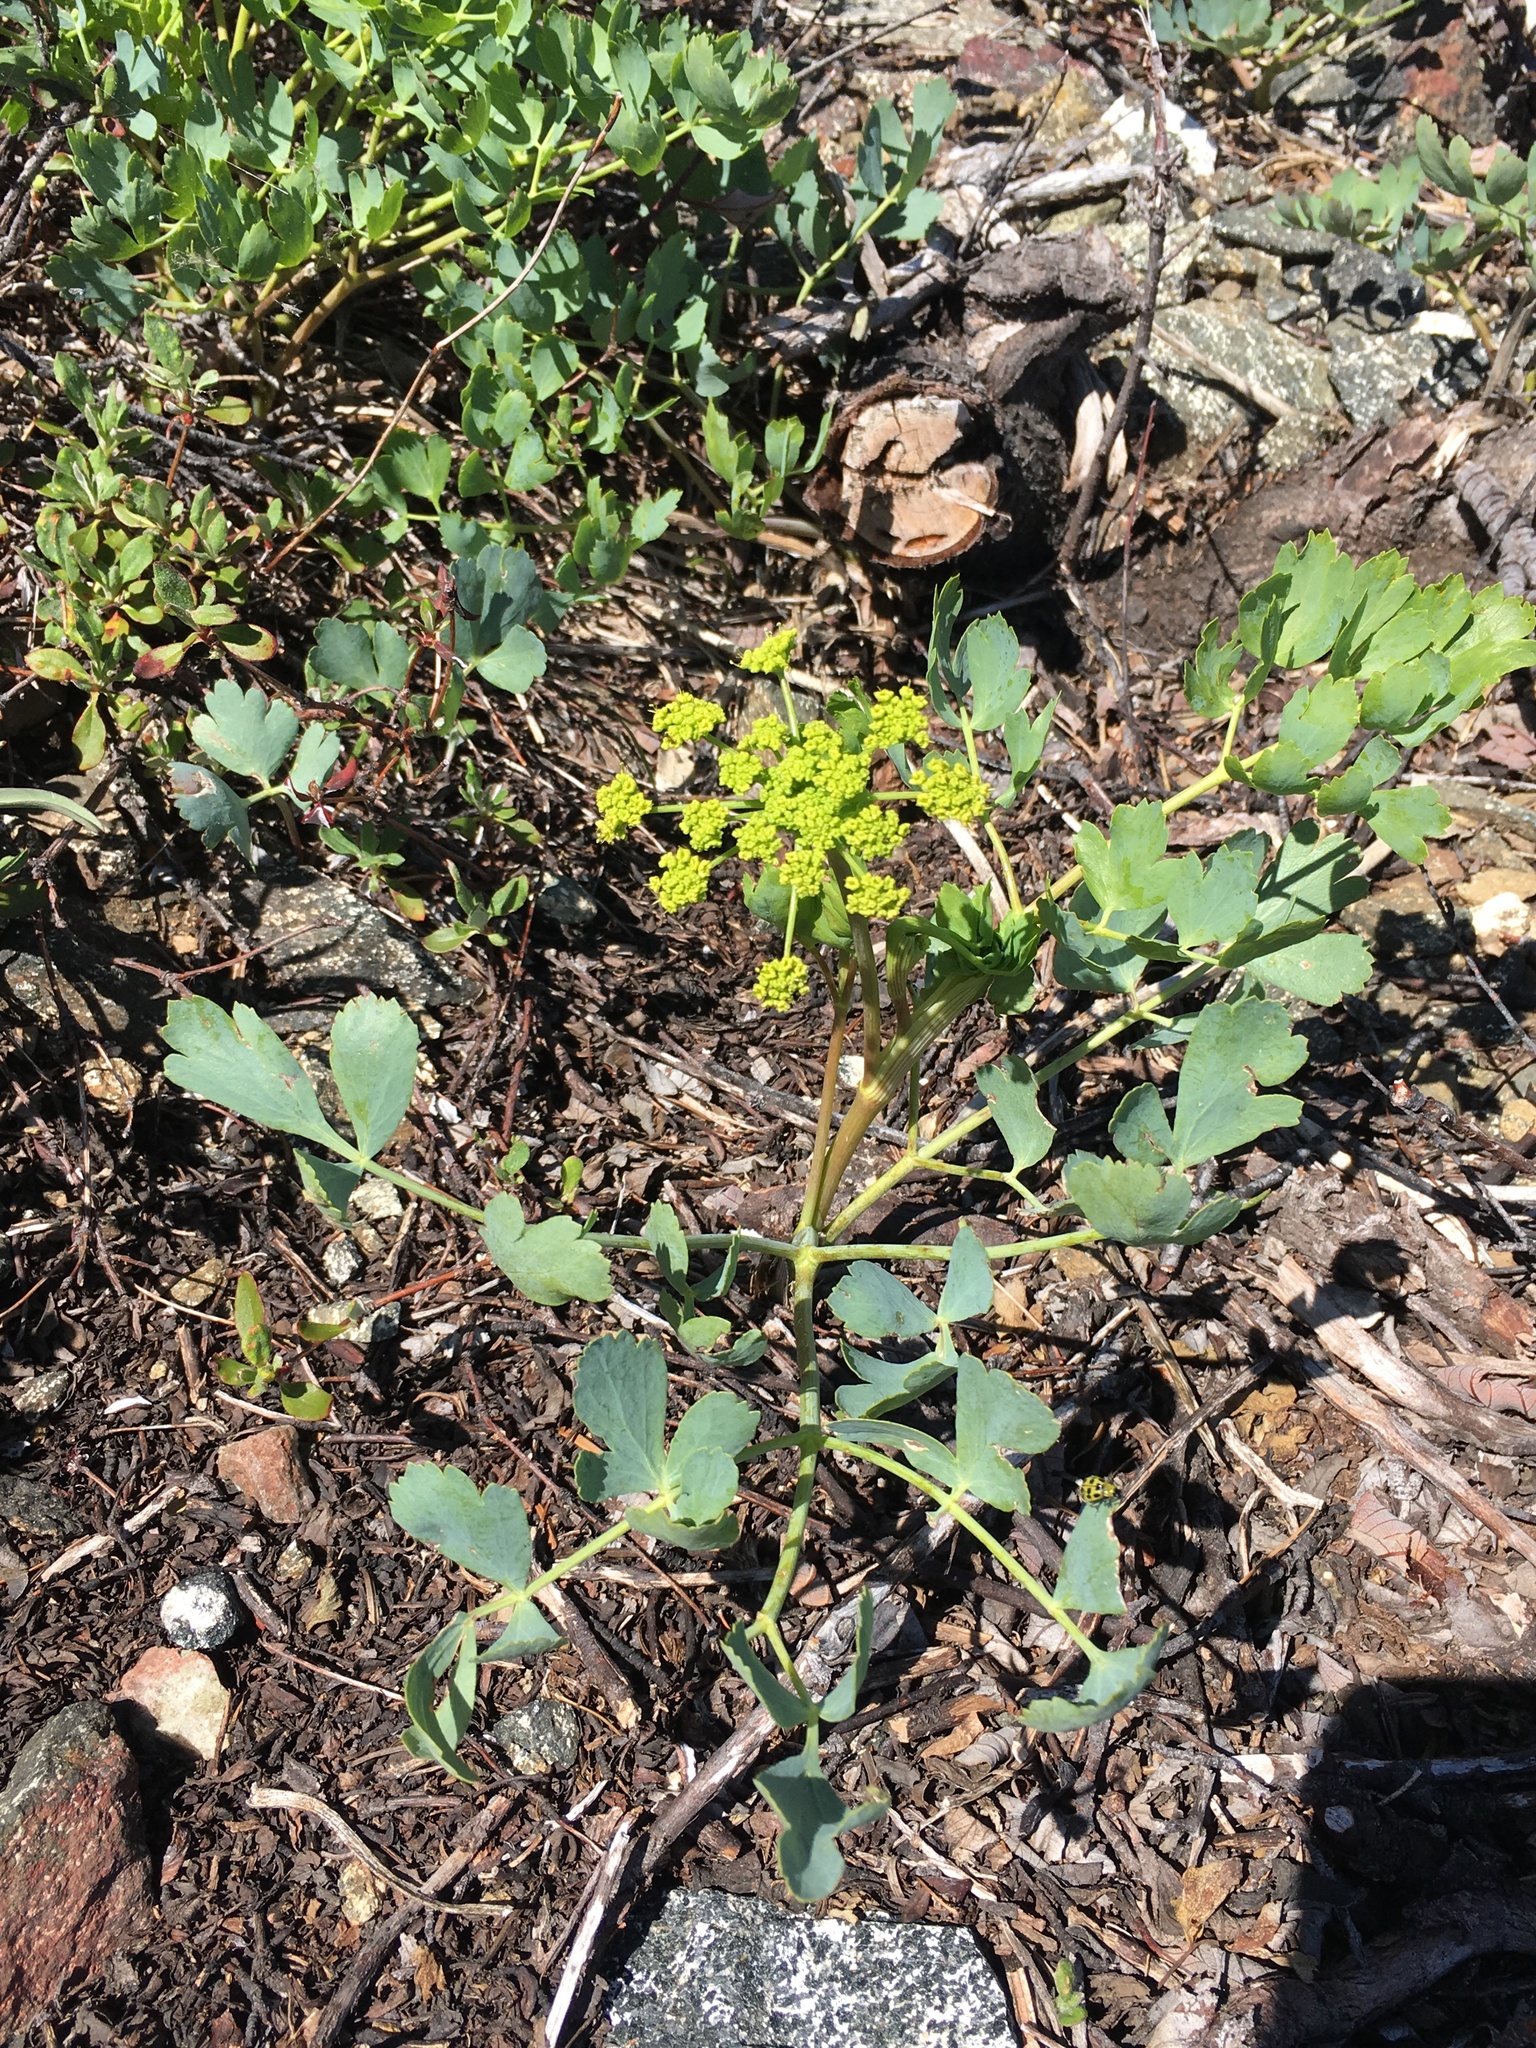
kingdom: Plantae
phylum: Tracheophyta
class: Magnoliopsida
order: Apiales
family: Apiaceae
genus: Lomatium
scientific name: Lomatium californicum
